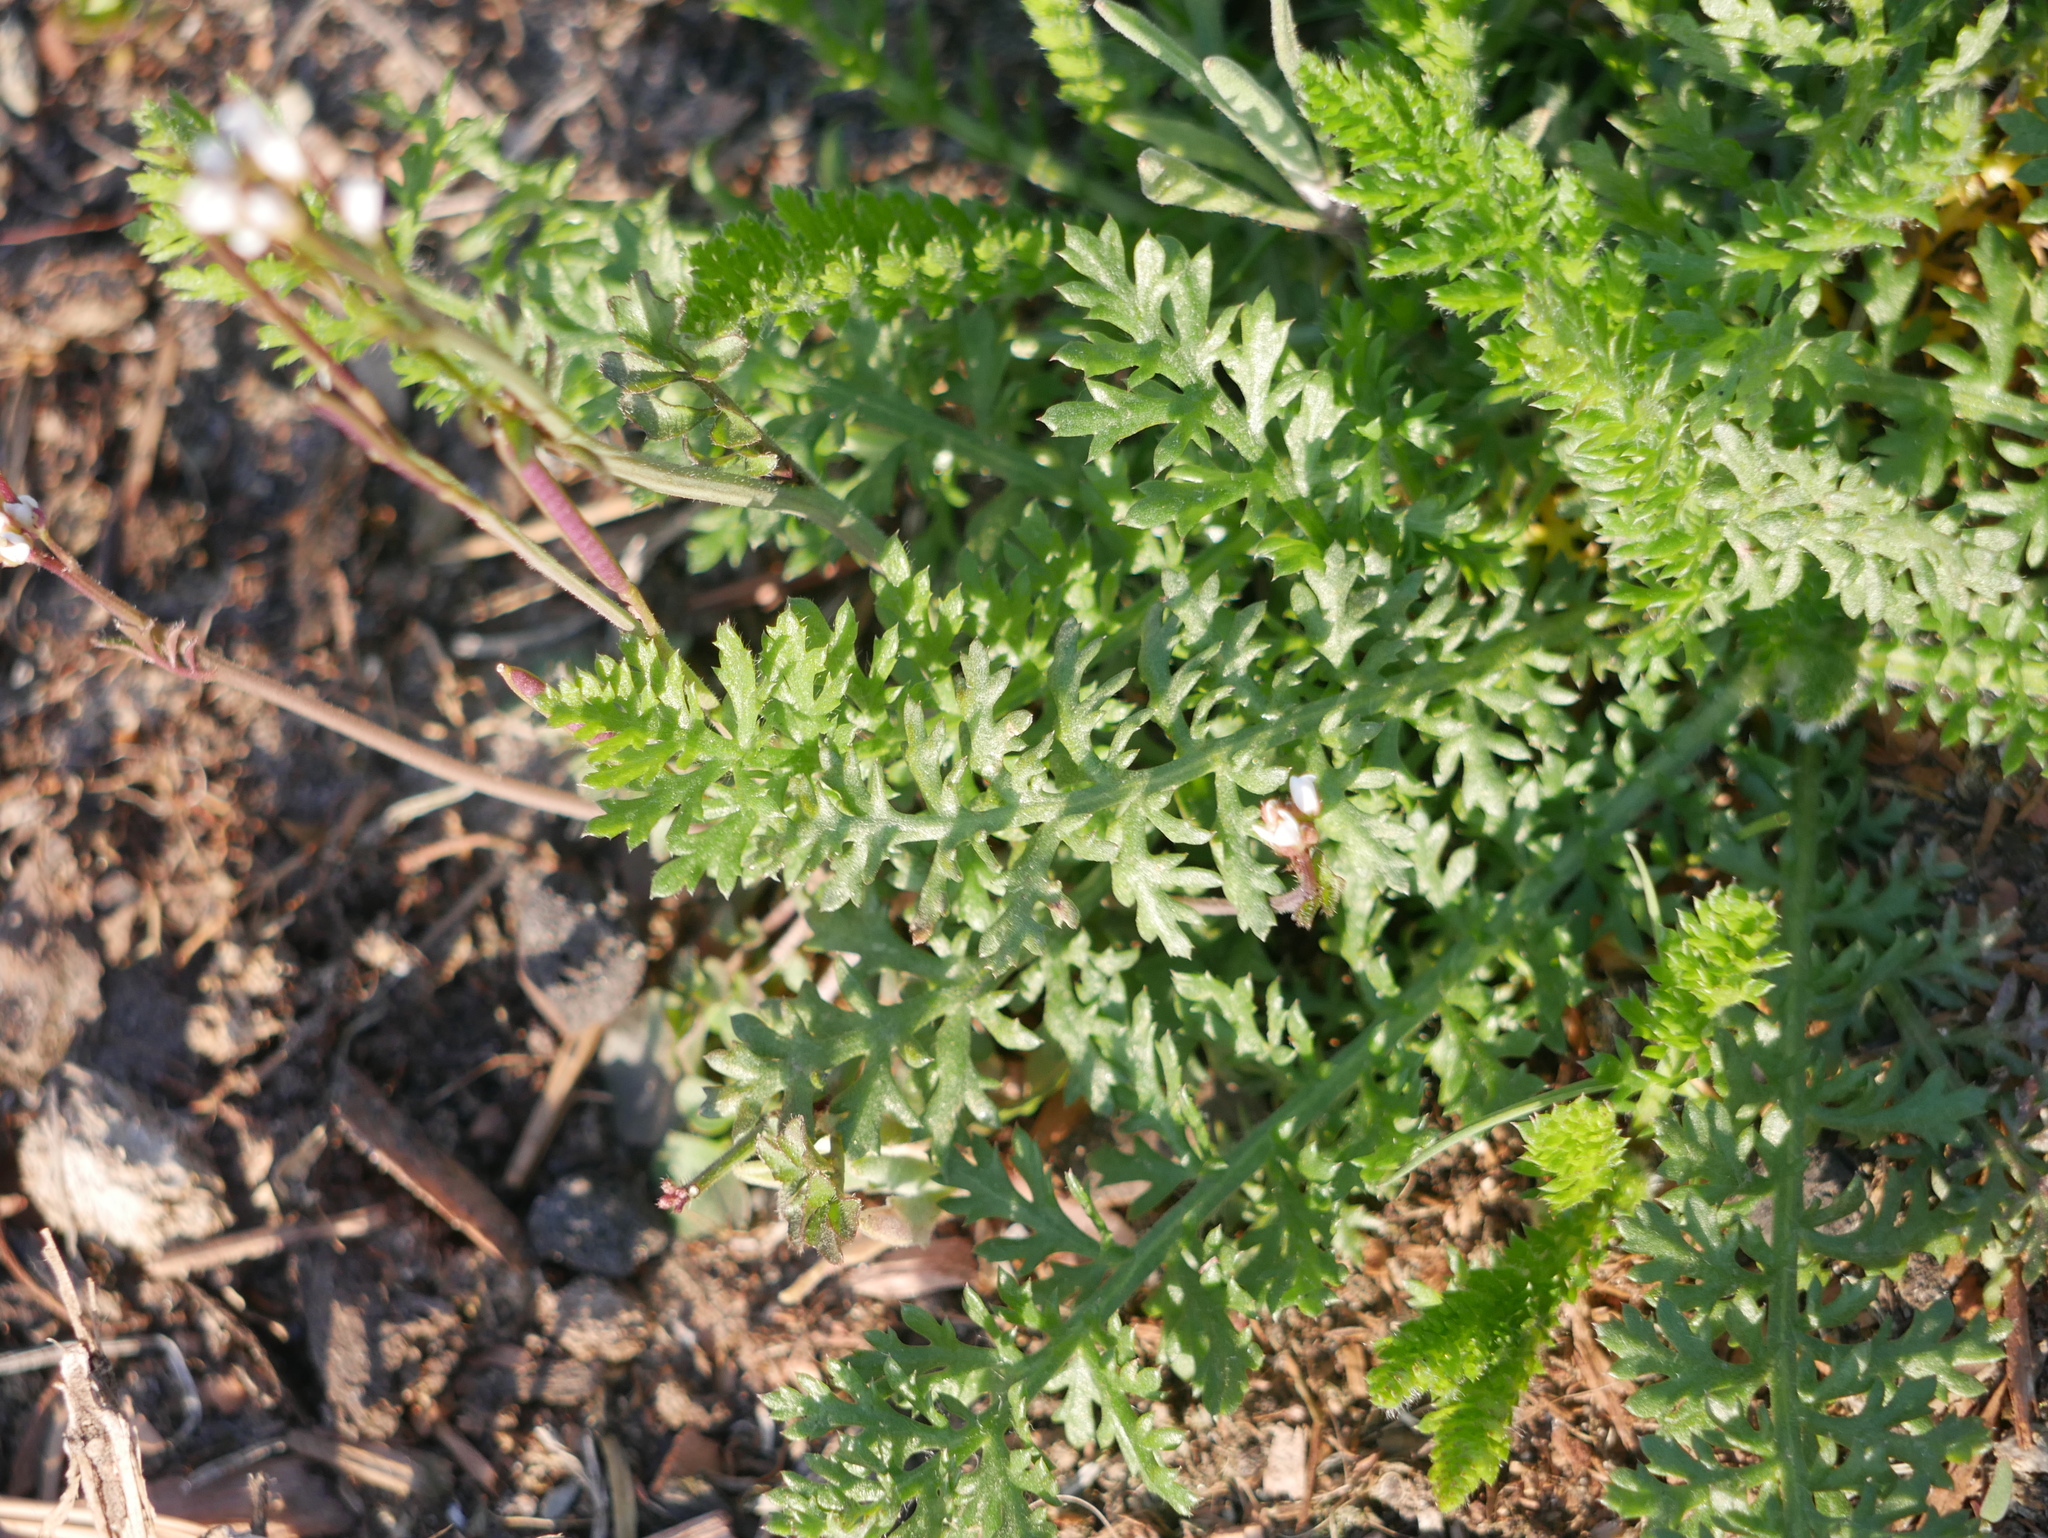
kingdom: Plantae
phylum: Tracheophyta
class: Magnoliopsida
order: Asterales
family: Asteraceae
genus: Achillea
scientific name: Achillea millefolium
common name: Yarrow
